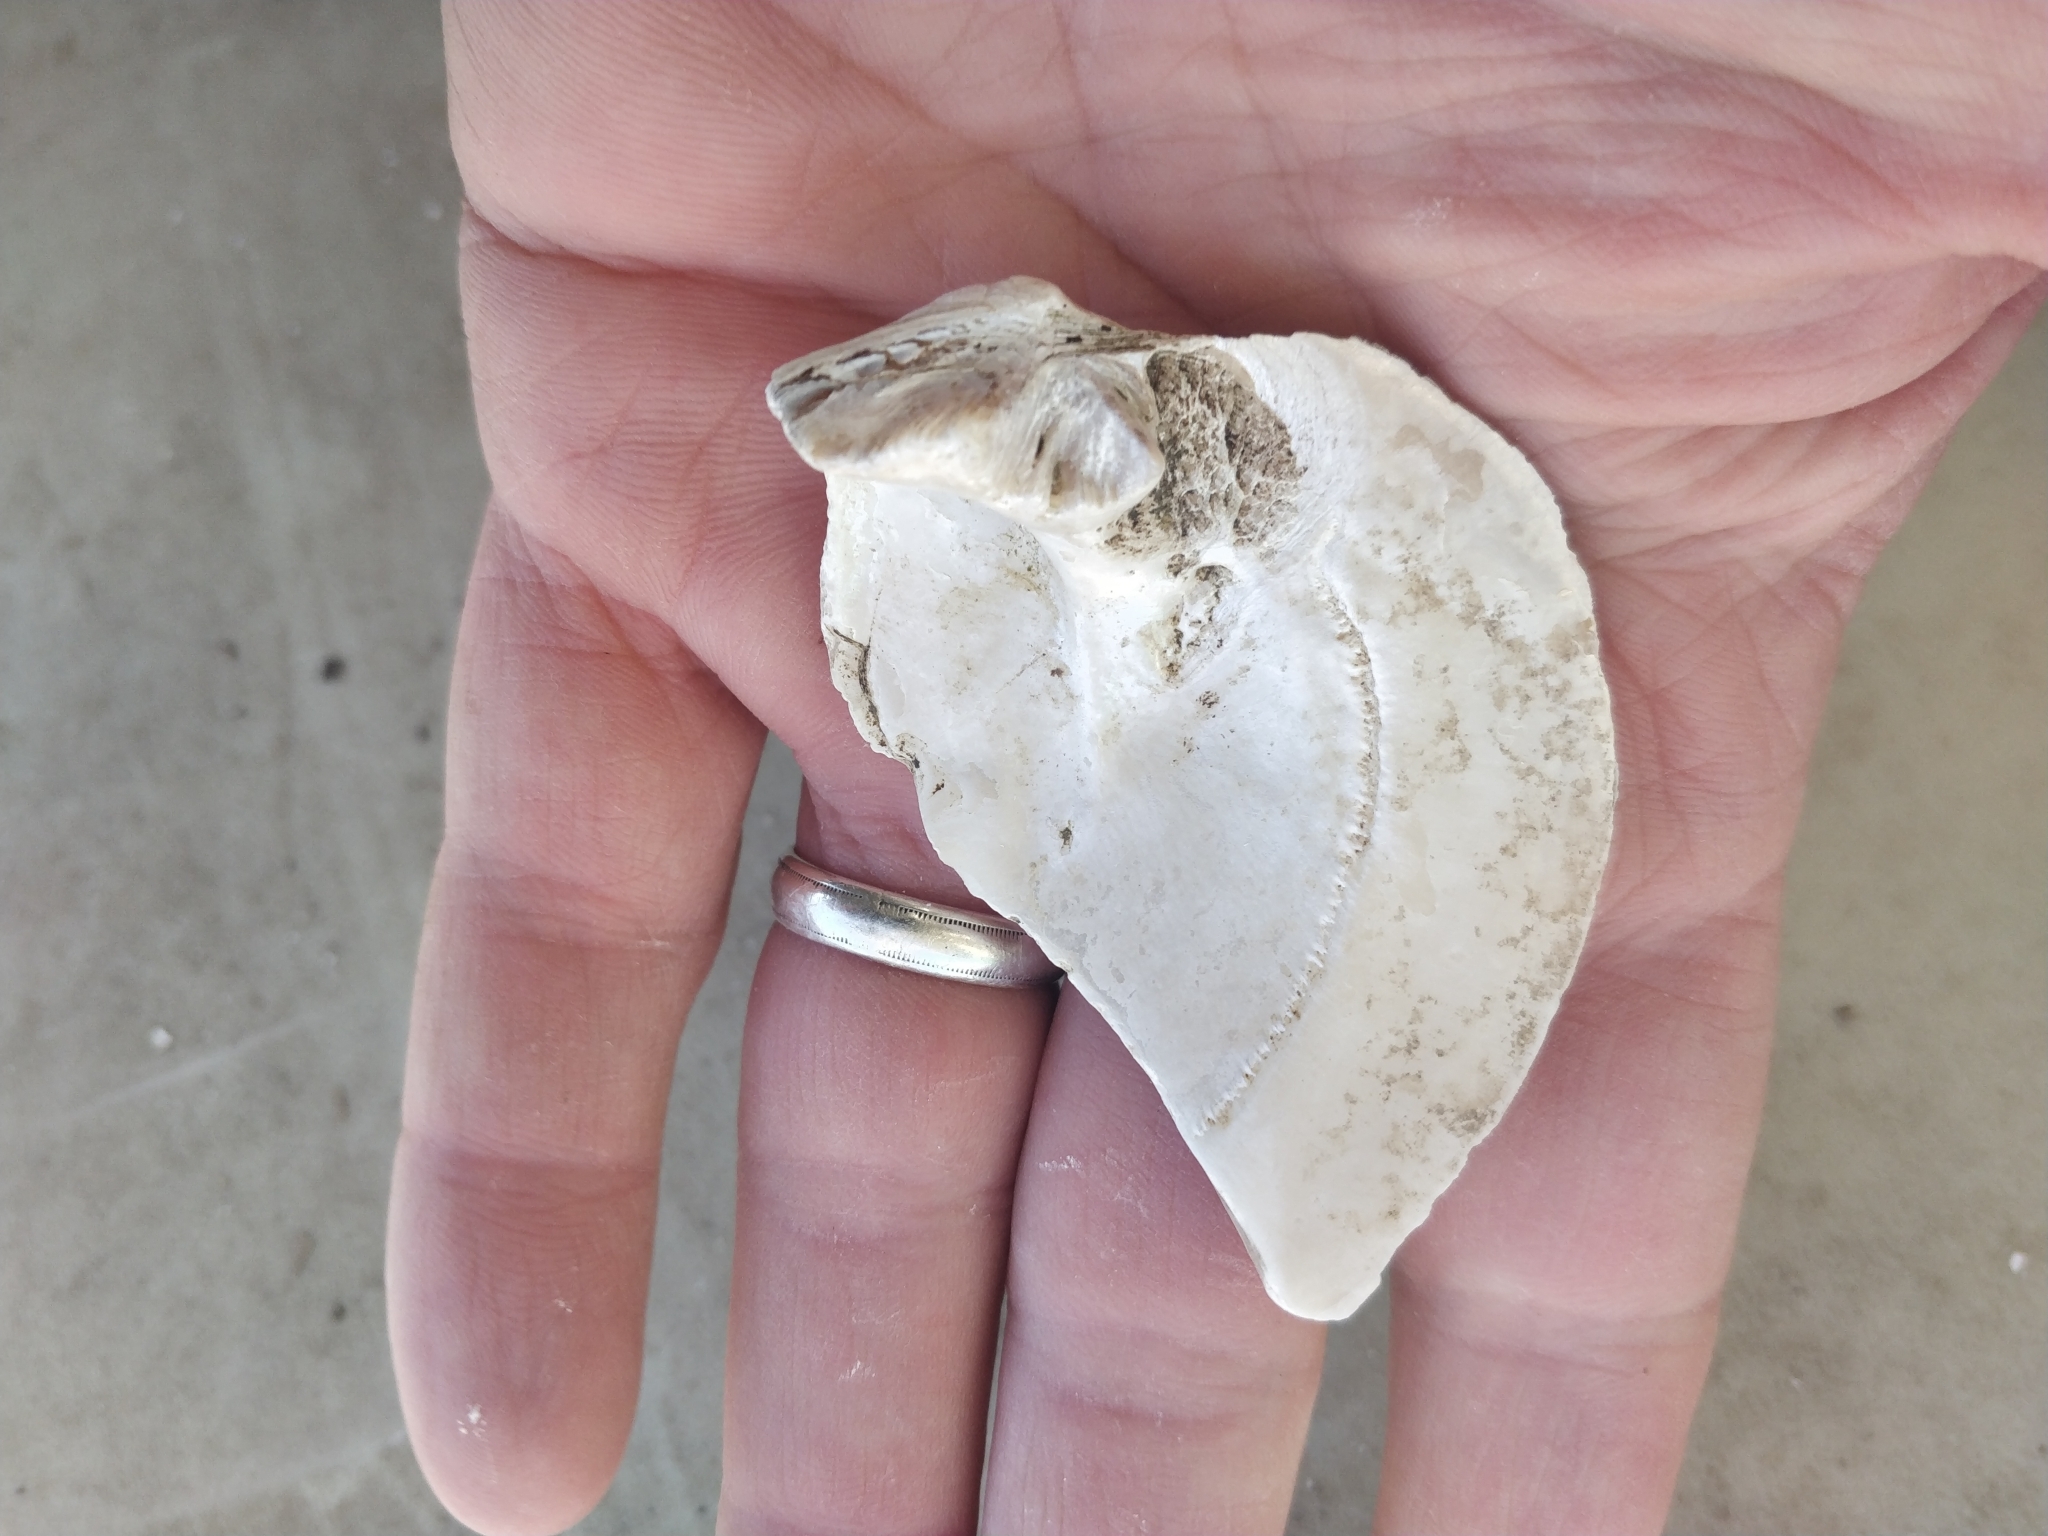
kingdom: Animalia
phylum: Mollusca
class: Bivalvia
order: Unionida
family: Unionidae
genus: Amblema
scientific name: Amblema plicata
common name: Threeridge
